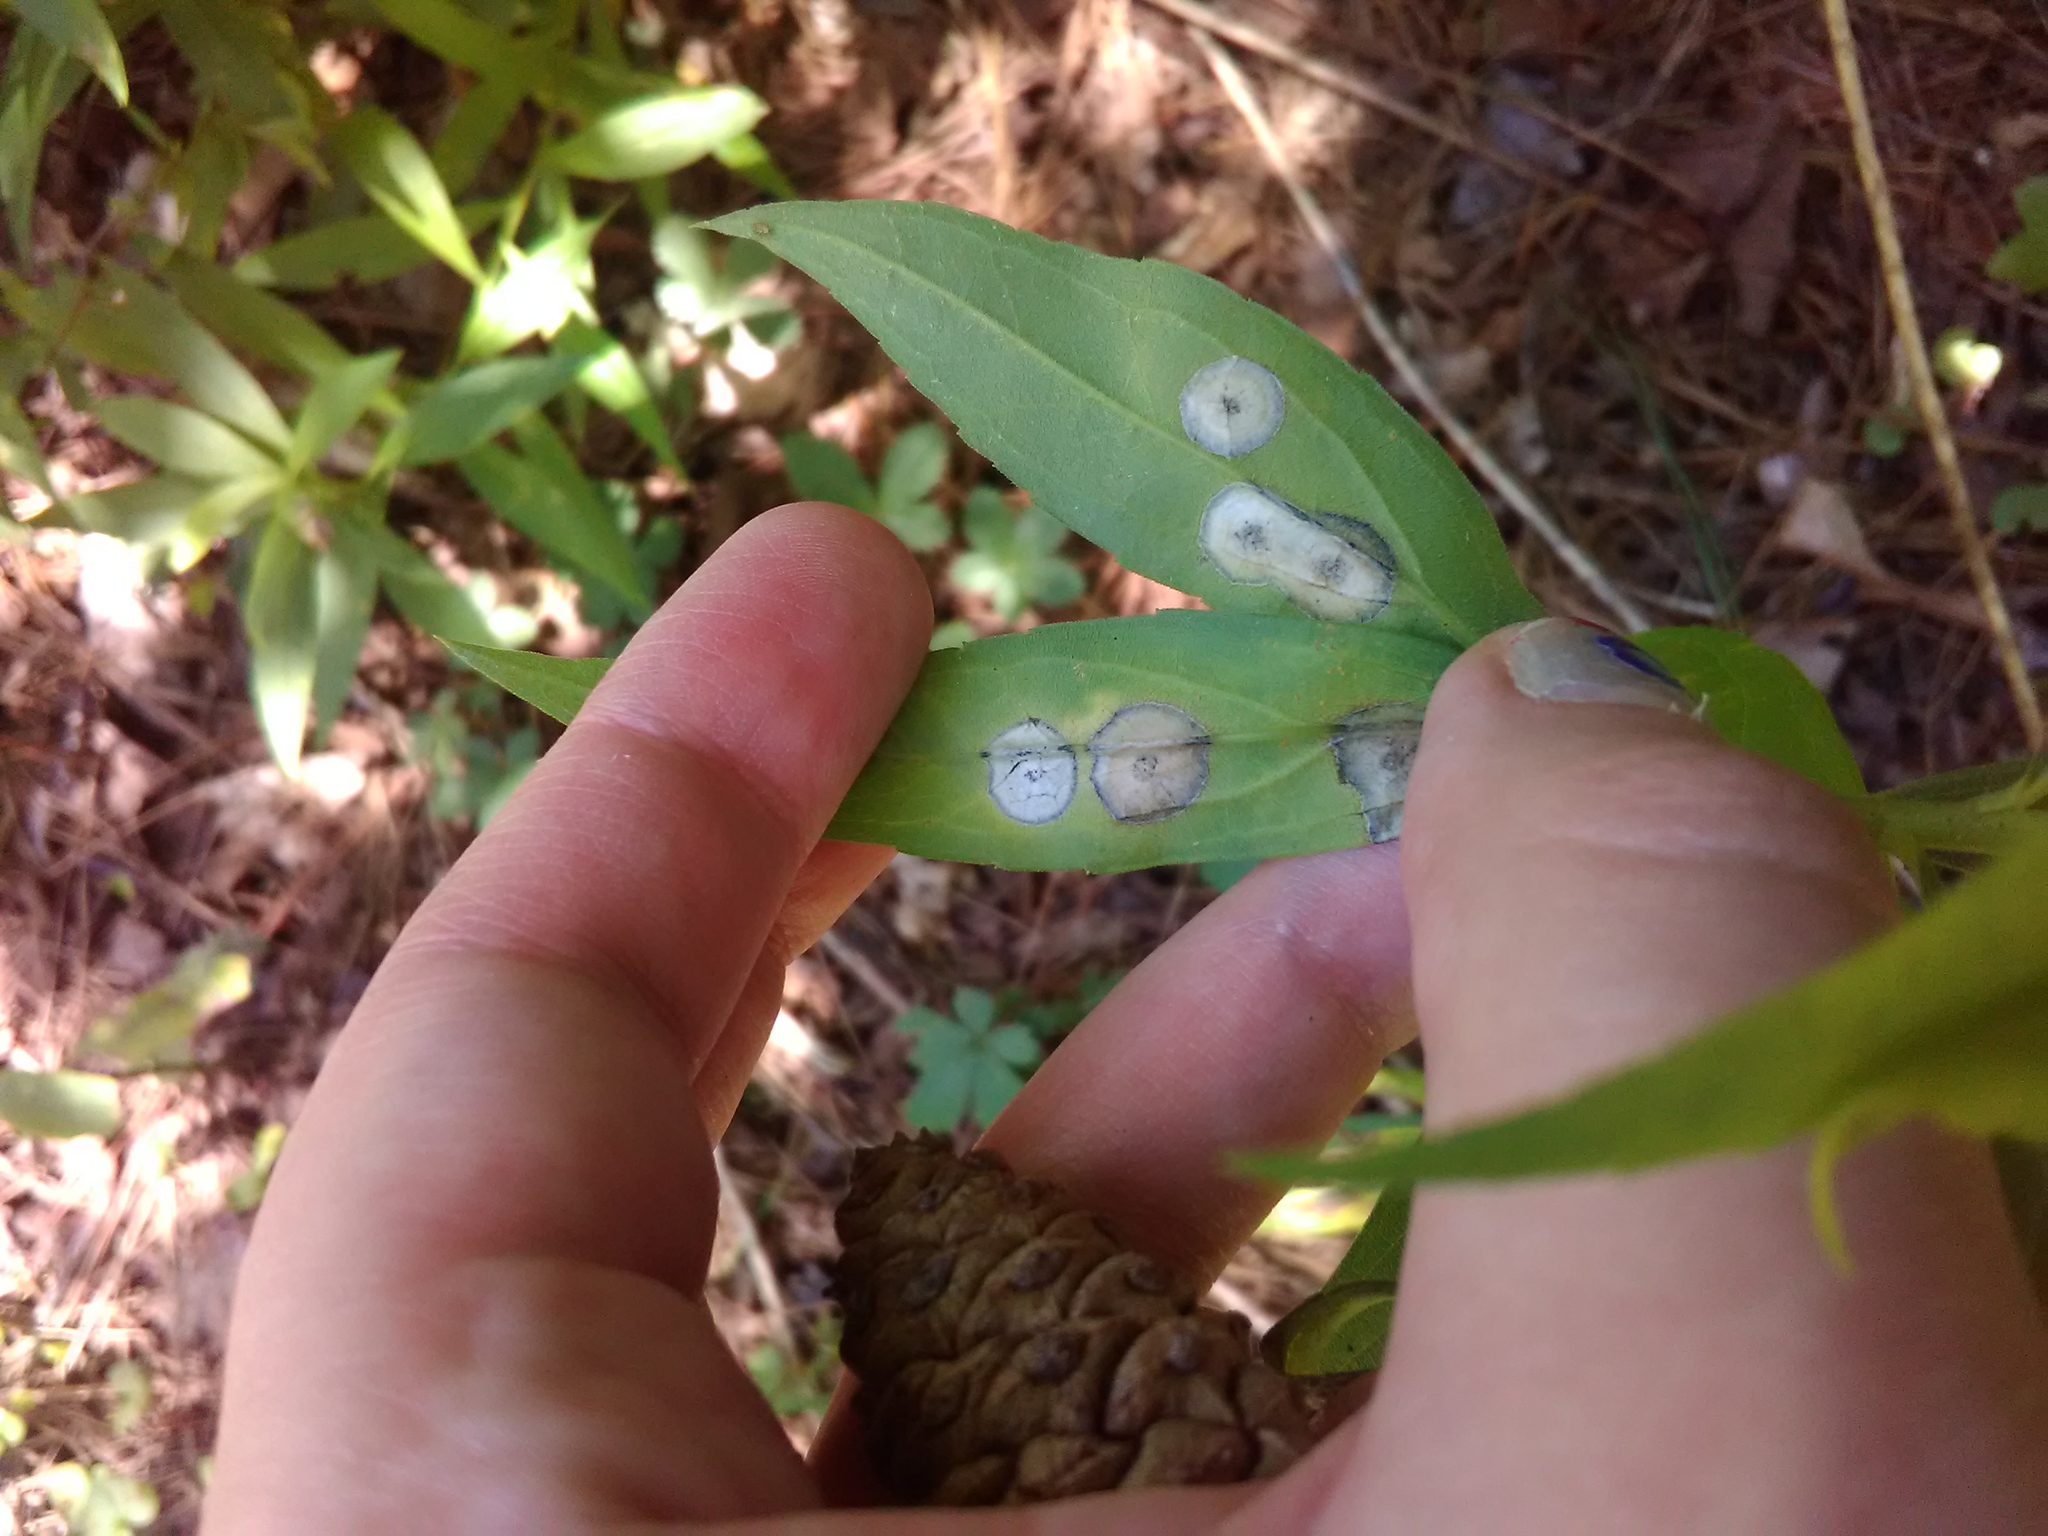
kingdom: Animalia
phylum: Arthropoda
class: Insecta
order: Diptera
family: Cecidomyiidae
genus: Asteromyia
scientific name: Asteromyia carbonifera
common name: Carbonifera goldenrod gall midge
